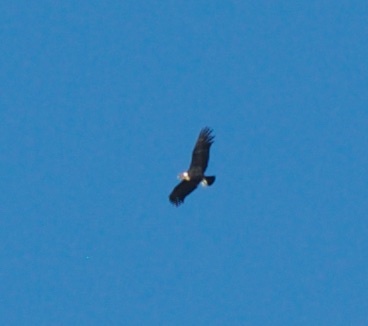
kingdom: Animalia
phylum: Chordata
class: Aves
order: Accipitriformes
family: Cathartidae
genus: Vultur
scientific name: Vultur gryphus
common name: Andean condor
